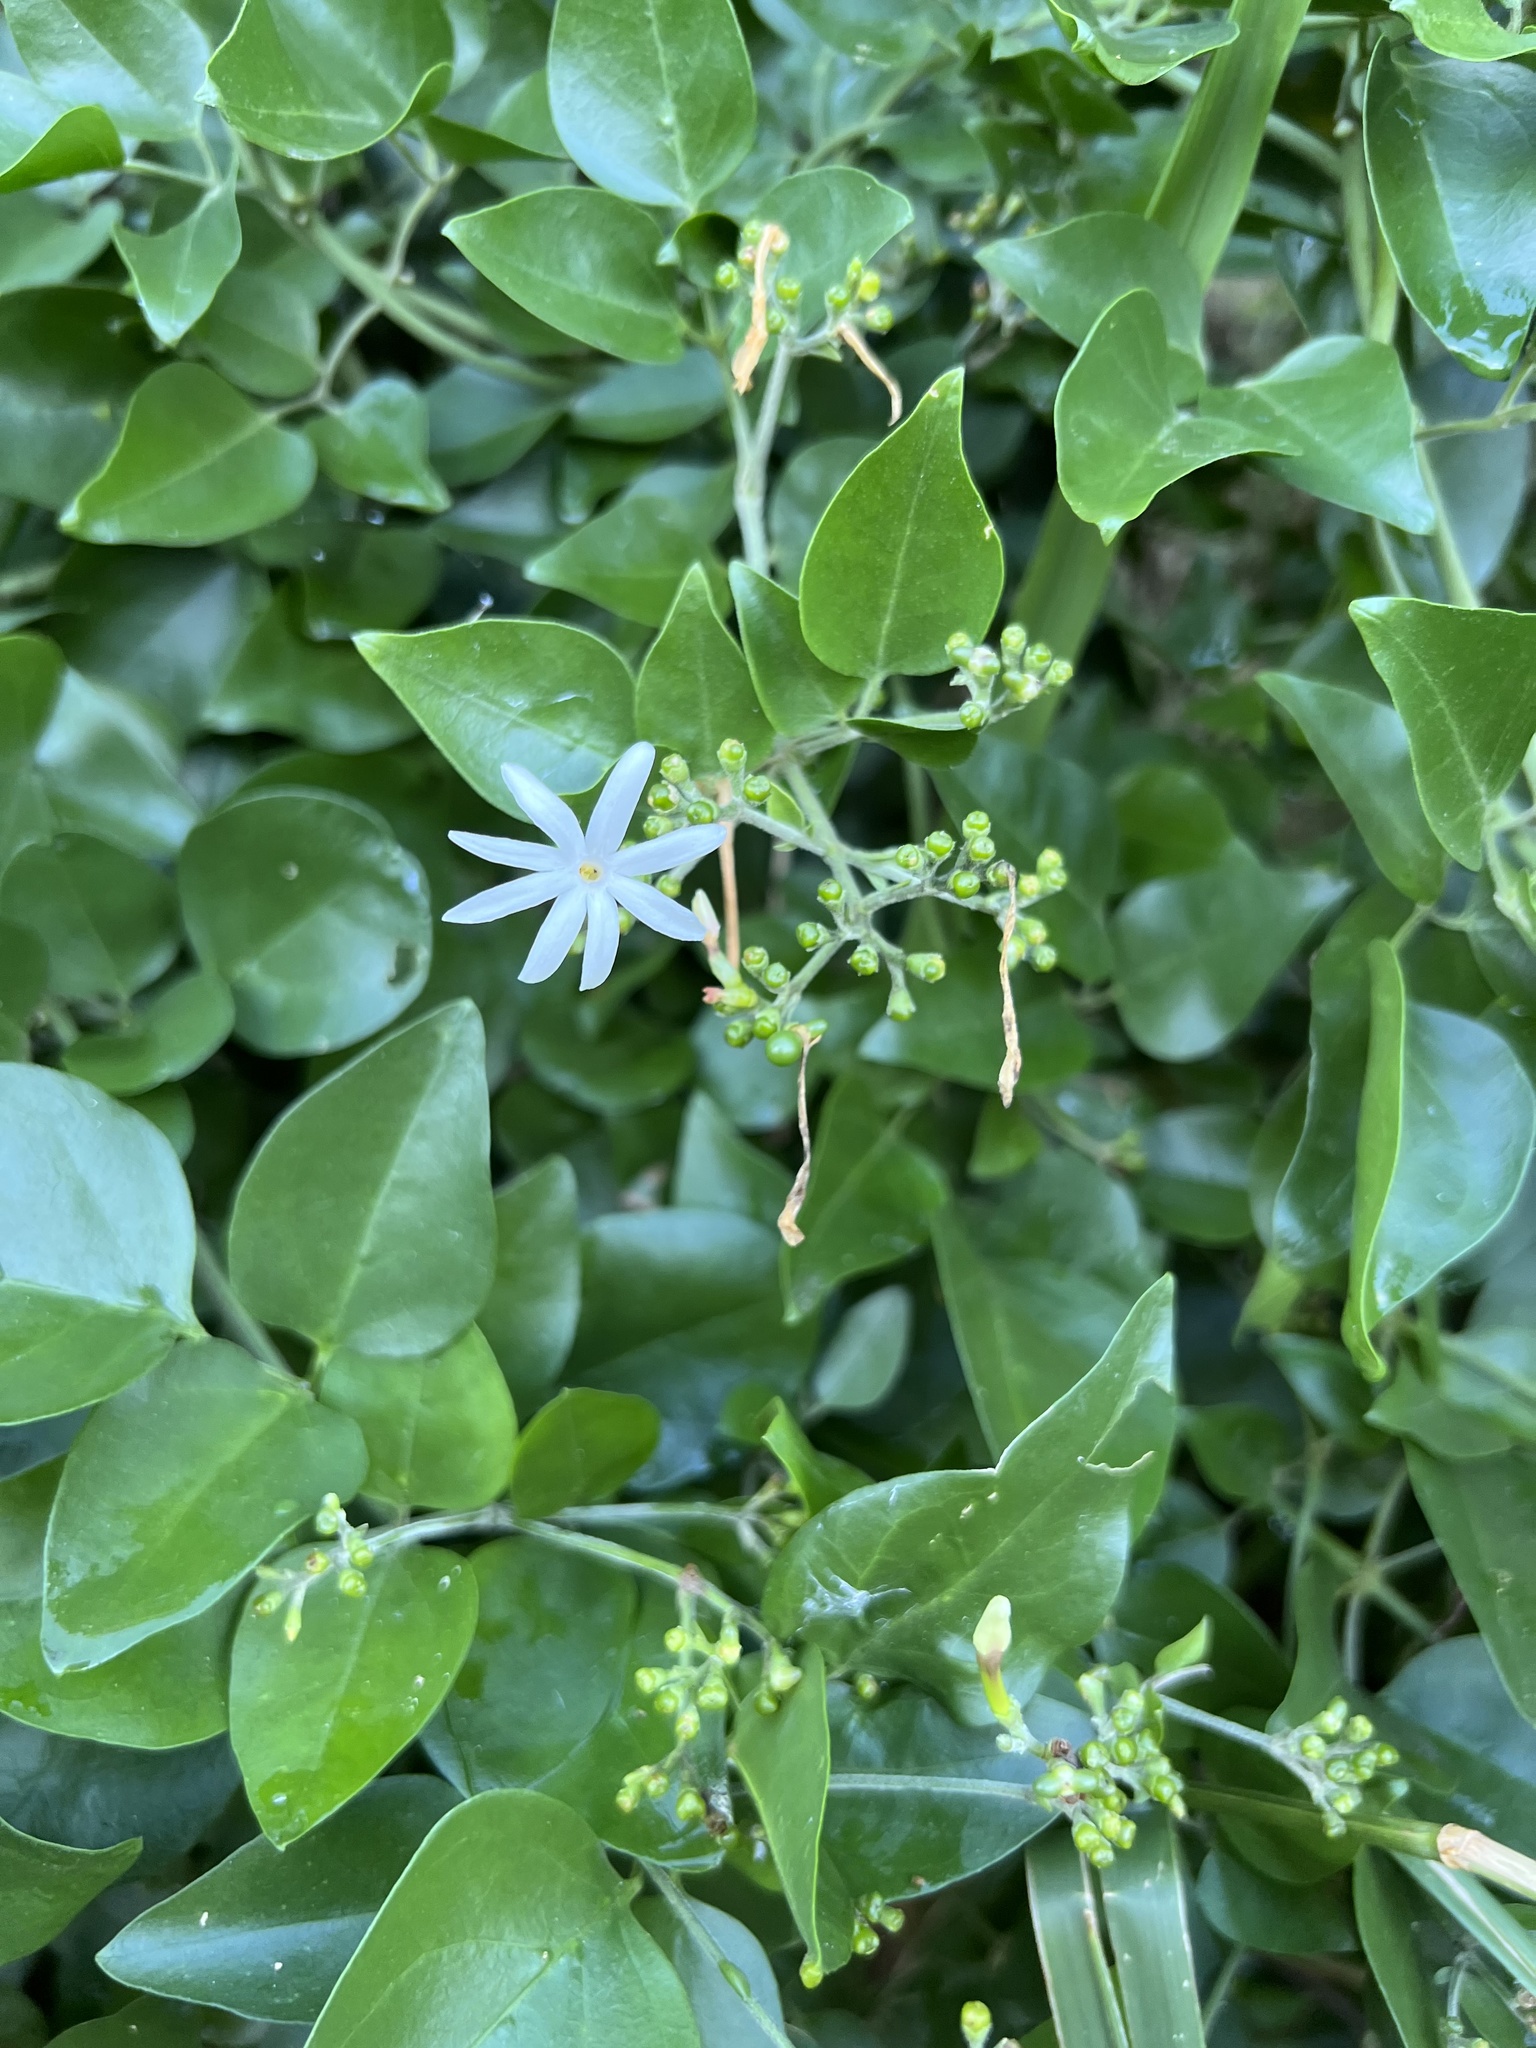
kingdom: Plantae
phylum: Tracheophyta
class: Magnoliopsida
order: Lamiales
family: Oleaceae
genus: Jasminum
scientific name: Jasminum fluminense
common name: Brazilian jasmine
